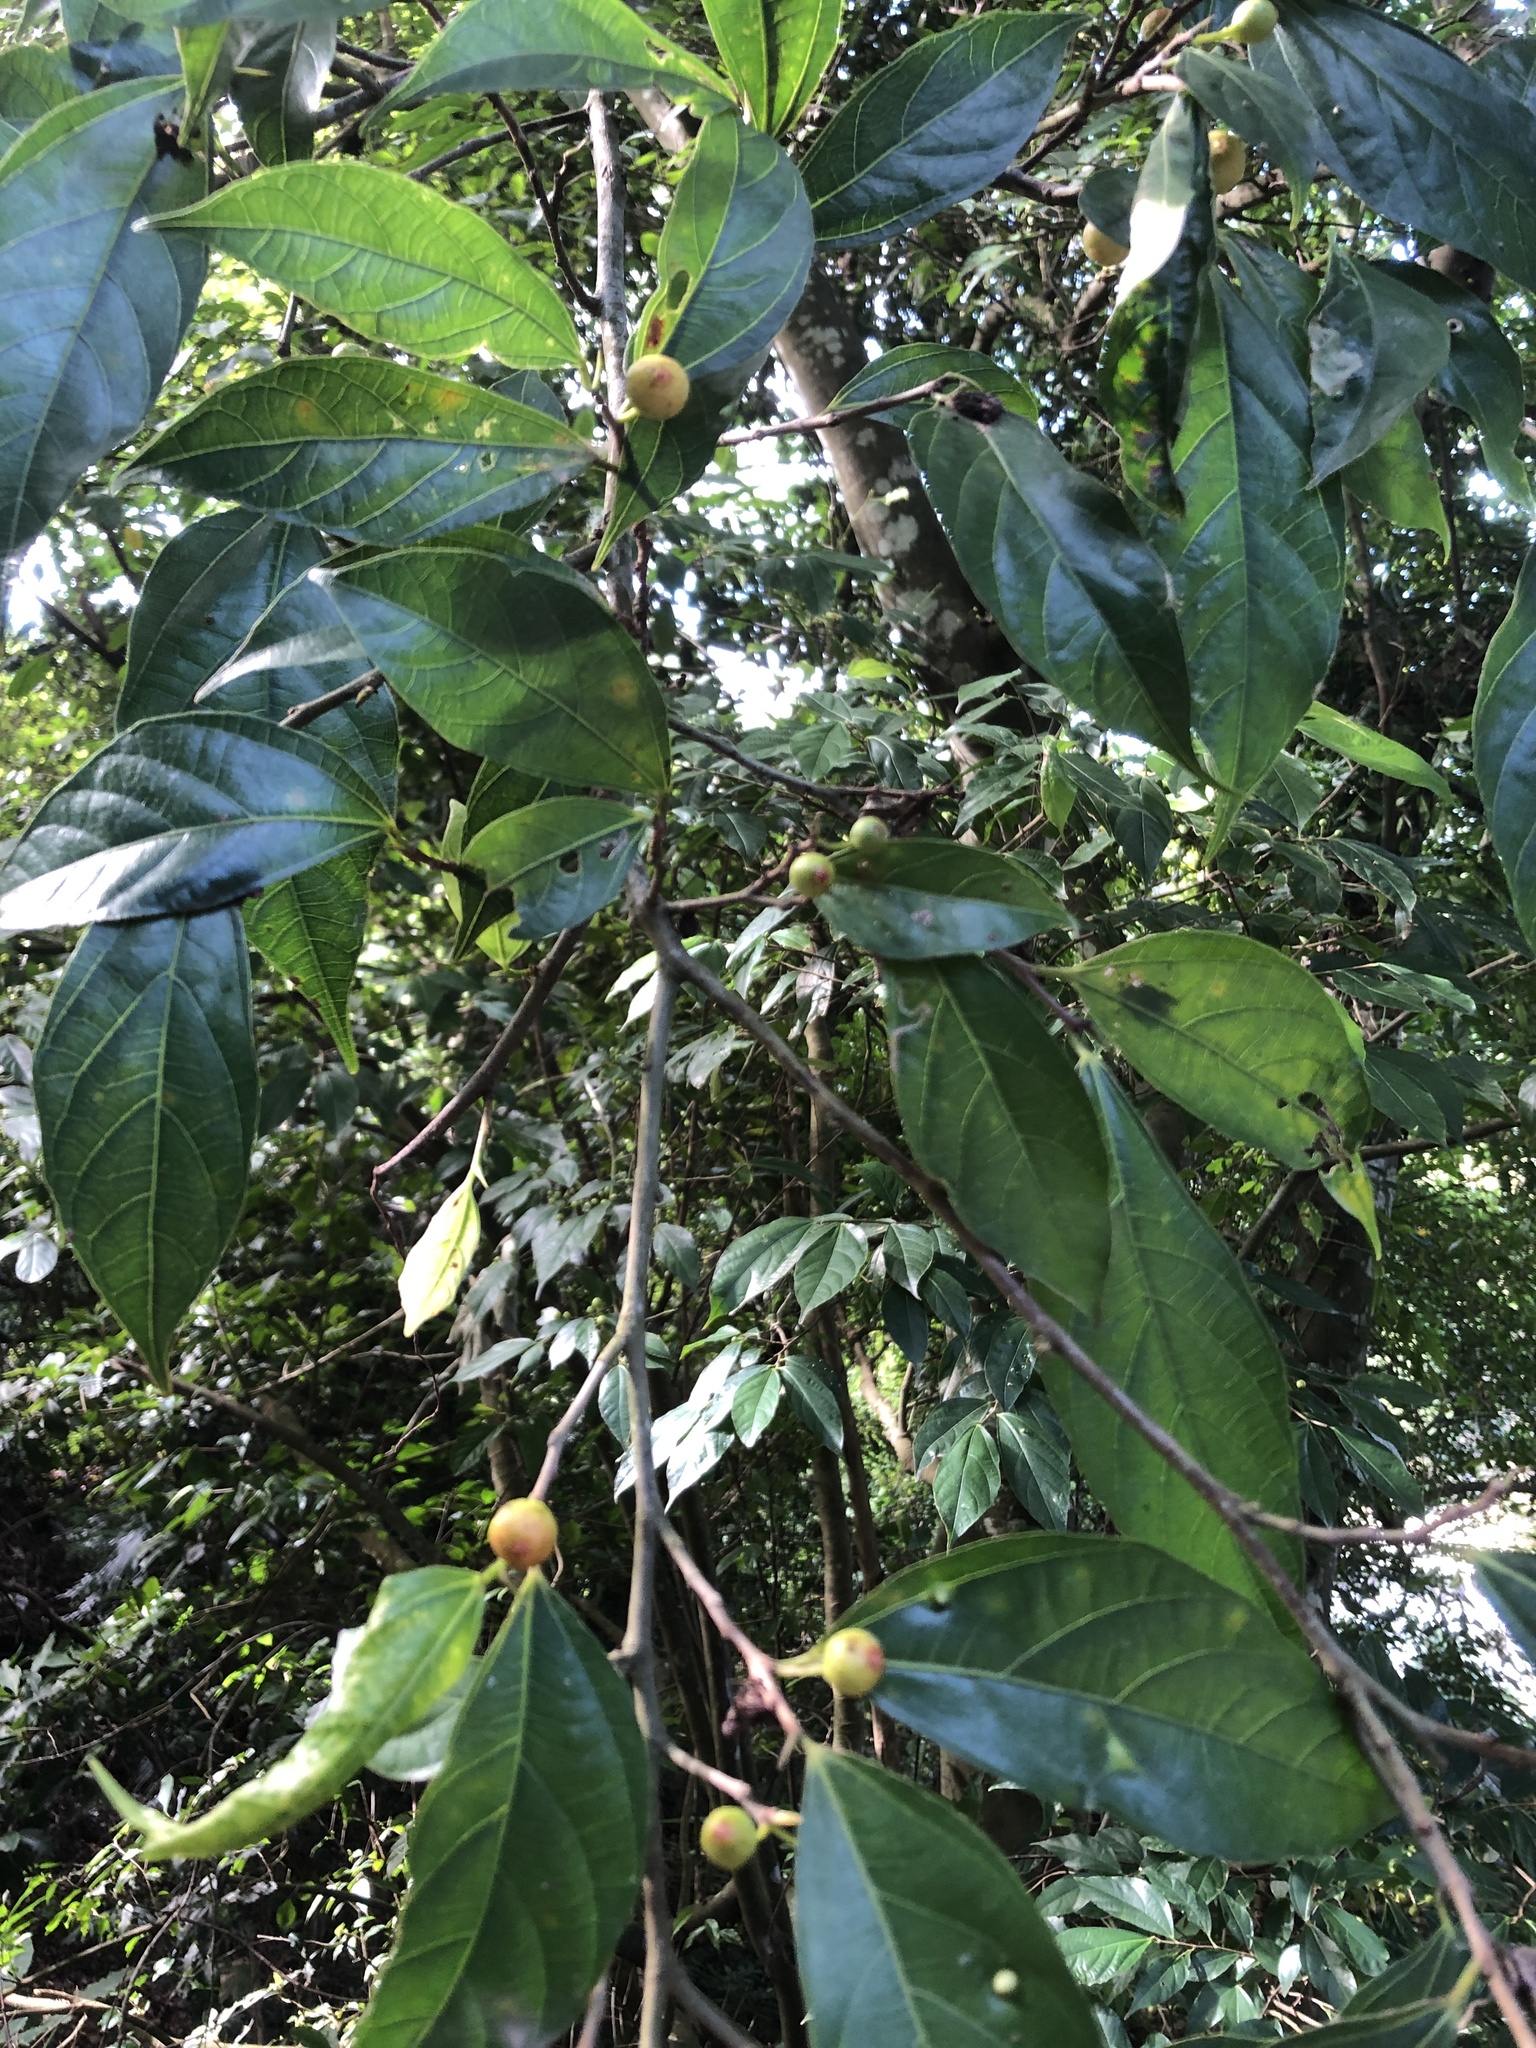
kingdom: Plantae
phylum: Tracheophyta
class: Magnoliopsida
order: Rosales
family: Moraceae
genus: Ficus
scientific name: Ficus ampelos
